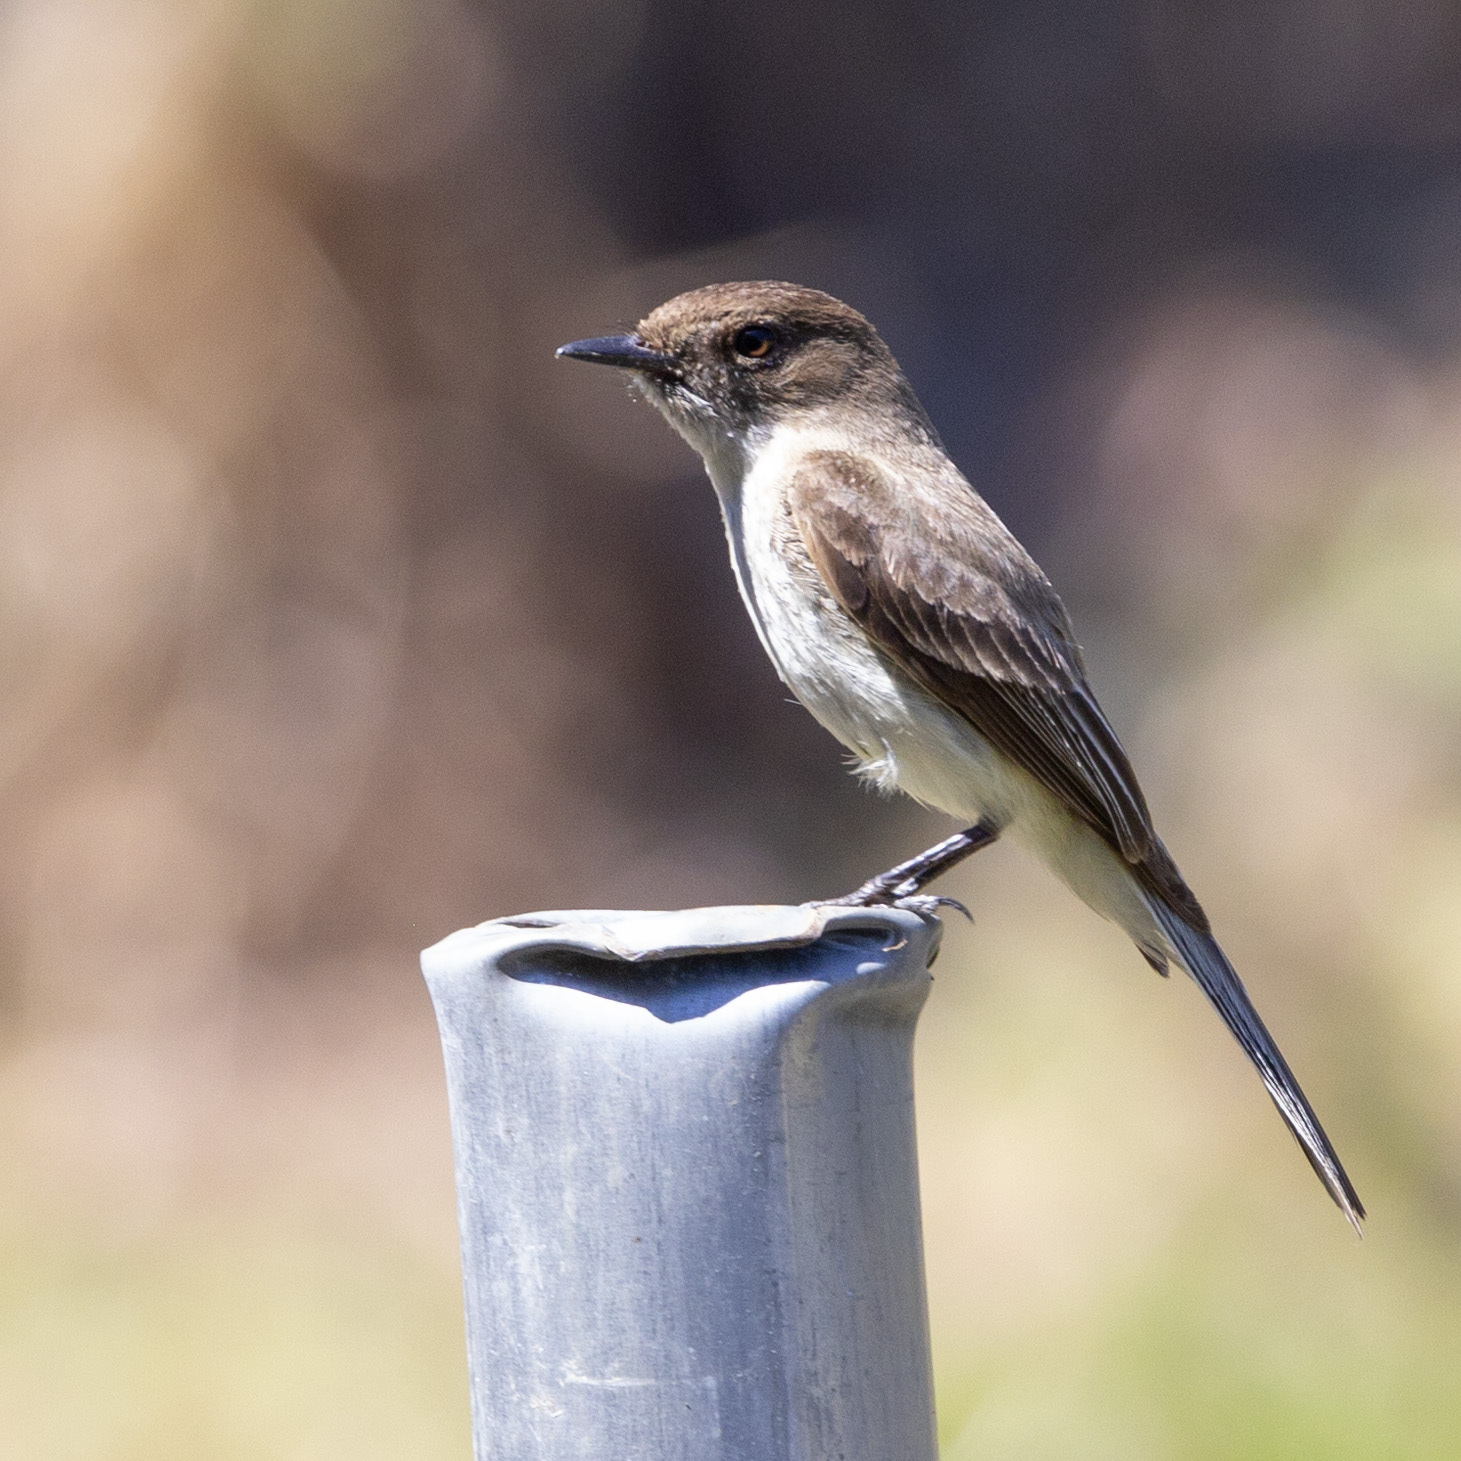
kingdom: Animalia
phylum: Chordata
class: Aves
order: Passeriformes
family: Tyrannidae
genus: Sayornis
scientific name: Sayornis phoebe
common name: Eastern phoebe
